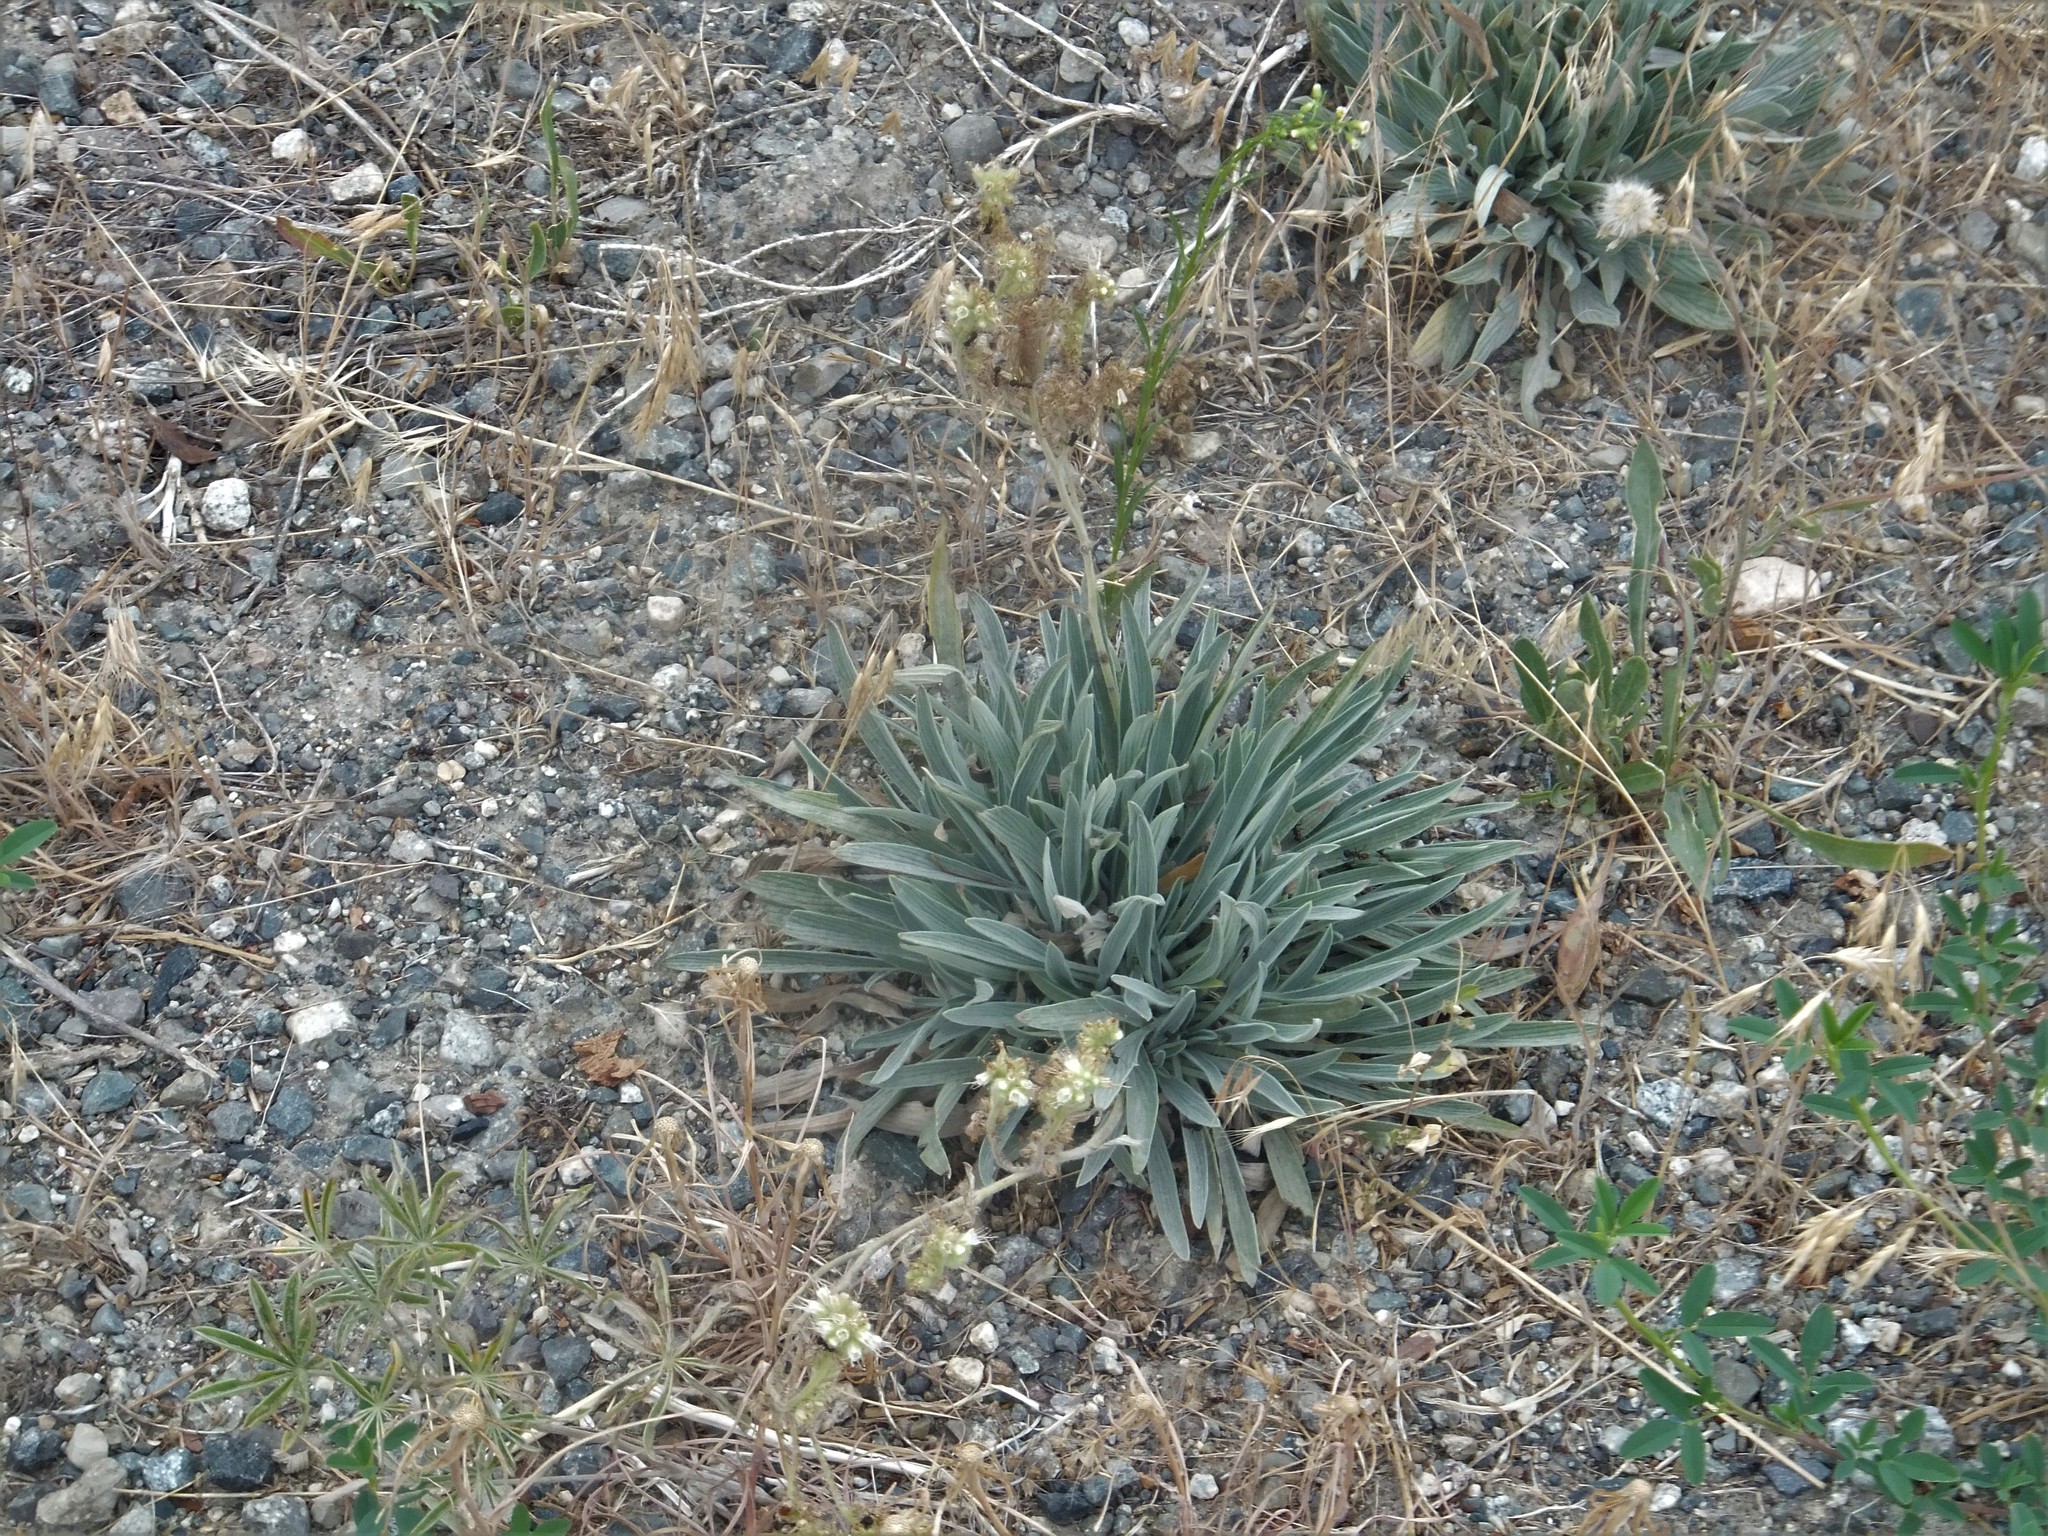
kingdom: Plantae
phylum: Tracheophyta
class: Magnoliopsida
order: Boraginales
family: Hydrophyllaceae
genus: Phacelia
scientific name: Phacelia hastata
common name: Silver-leaved phacelia
